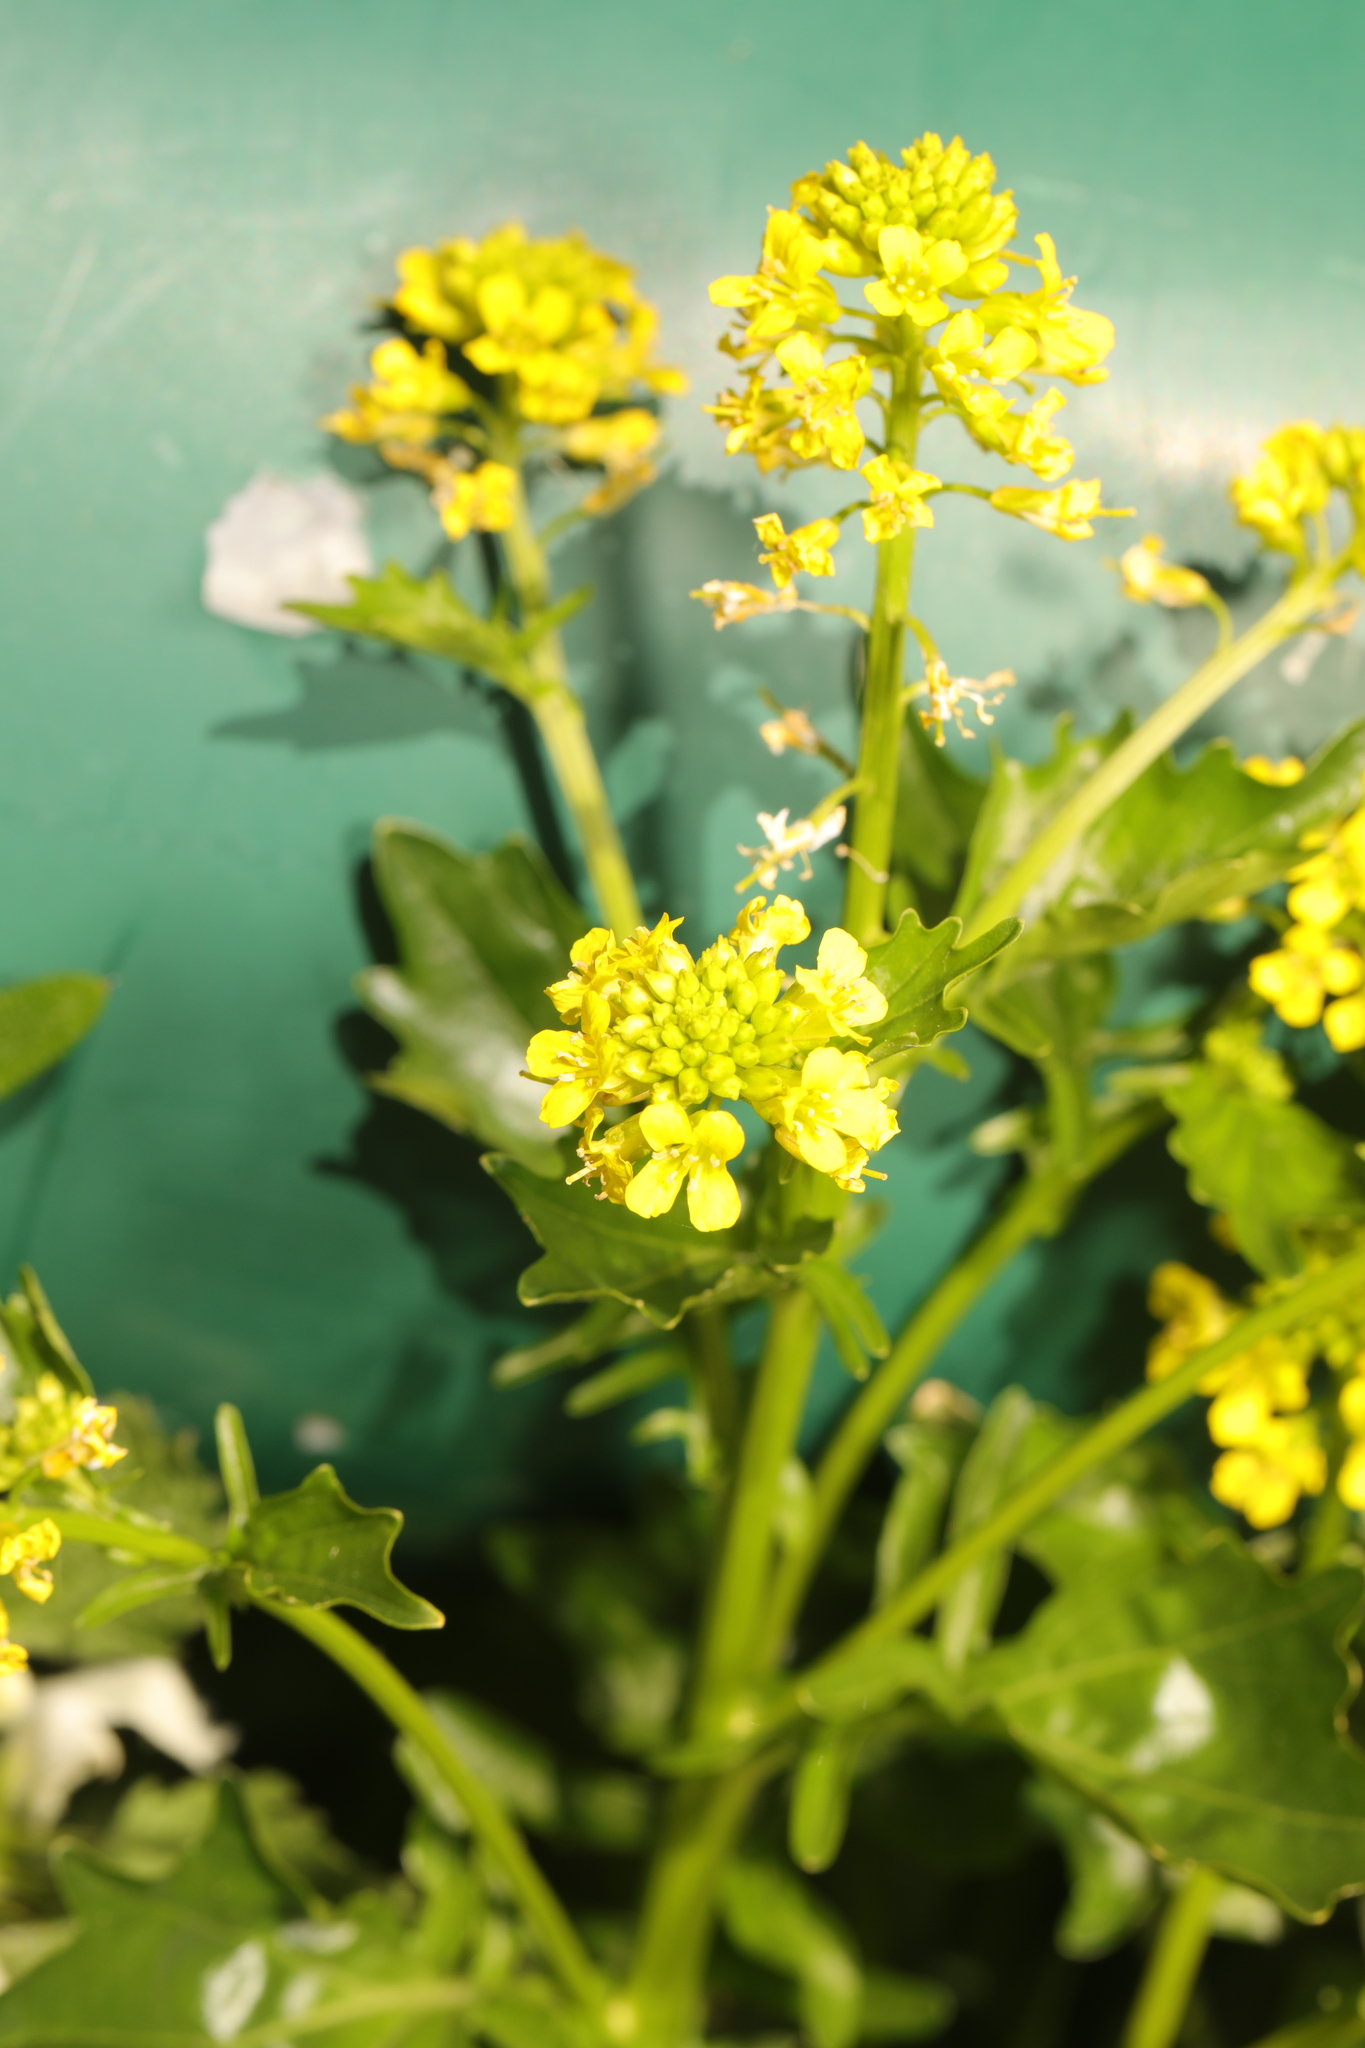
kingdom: Plantae
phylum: Tracheophyta
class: Magnoliopsida
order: Brassicales
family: Brassicaceae
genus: Barbarea
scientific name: Barbarea vulgaris
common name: Cressy-greens
